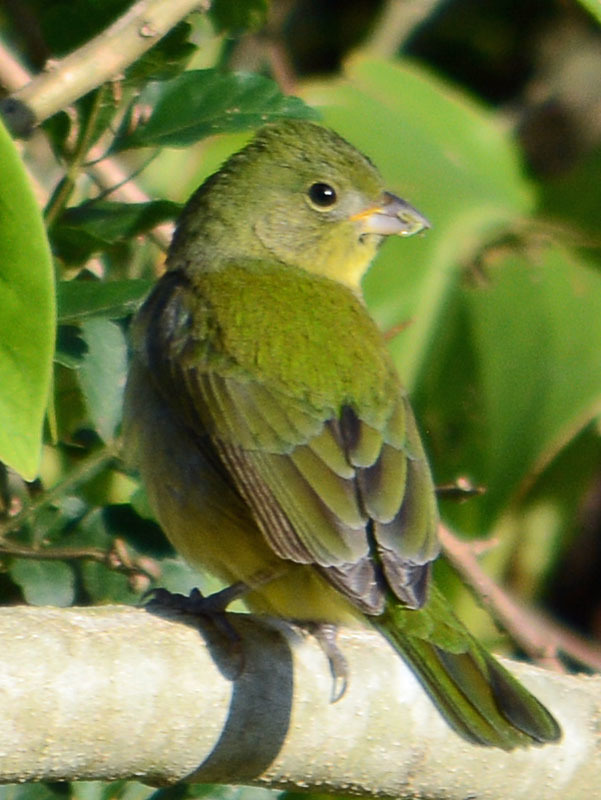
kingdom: Animalia
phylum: Chordata
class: Aves
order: Passeriformes
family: Cardinalidae
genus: Passerina
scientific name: Passerina ciris
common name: Painted bunting
